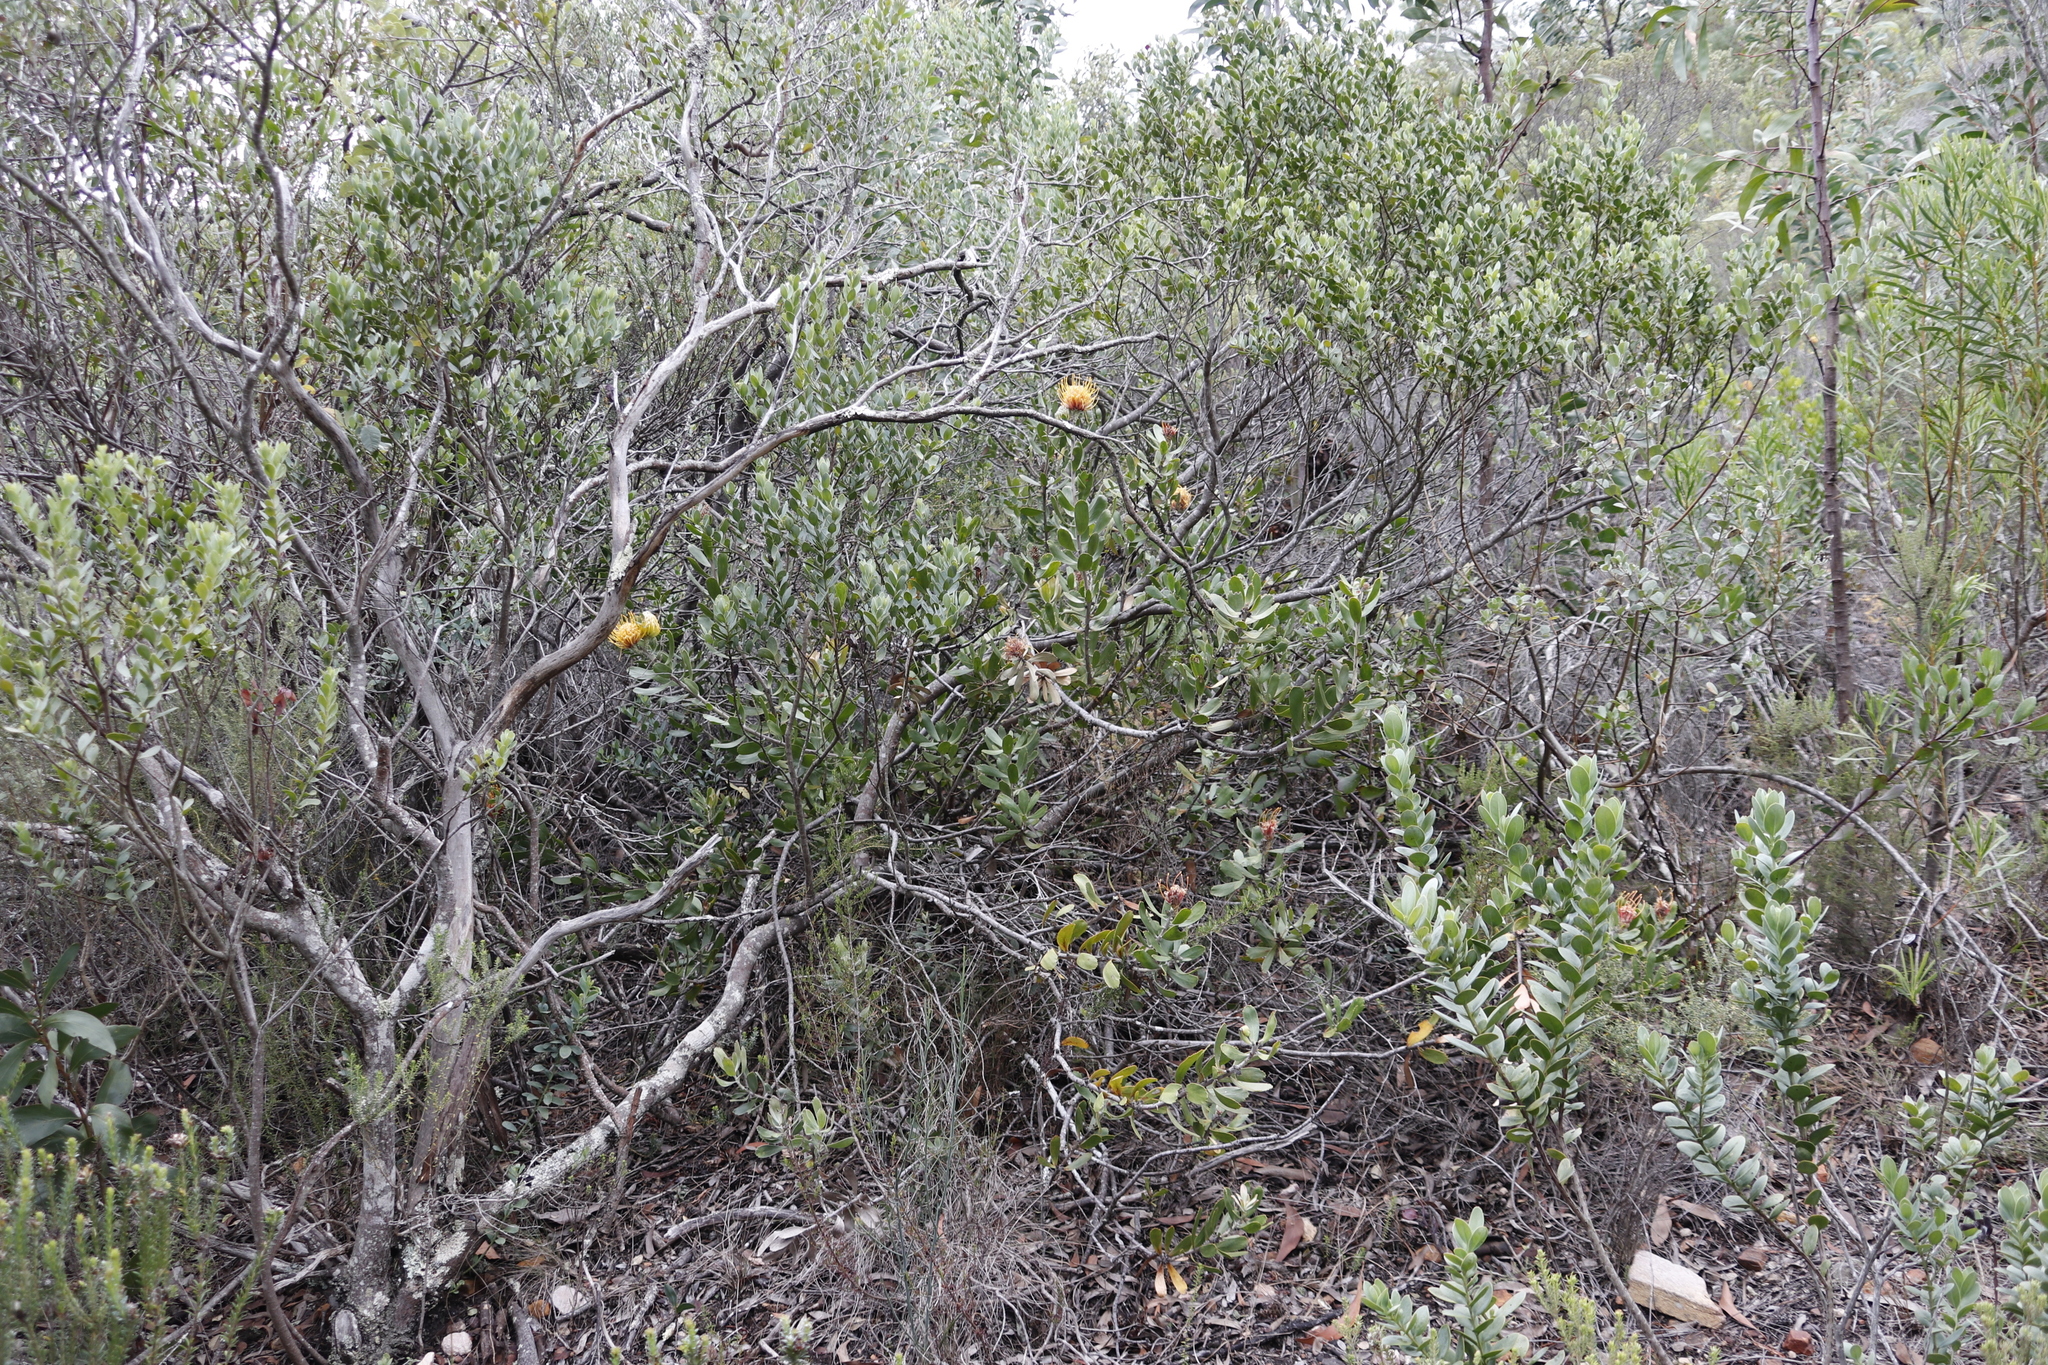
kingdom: Plantae
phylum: Tracheophyta
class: Magnoliopsida
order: Proteales
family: Proteaceae
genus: Leucospermum
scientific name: Leucospermum cuneiforme
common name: Common pincushion
